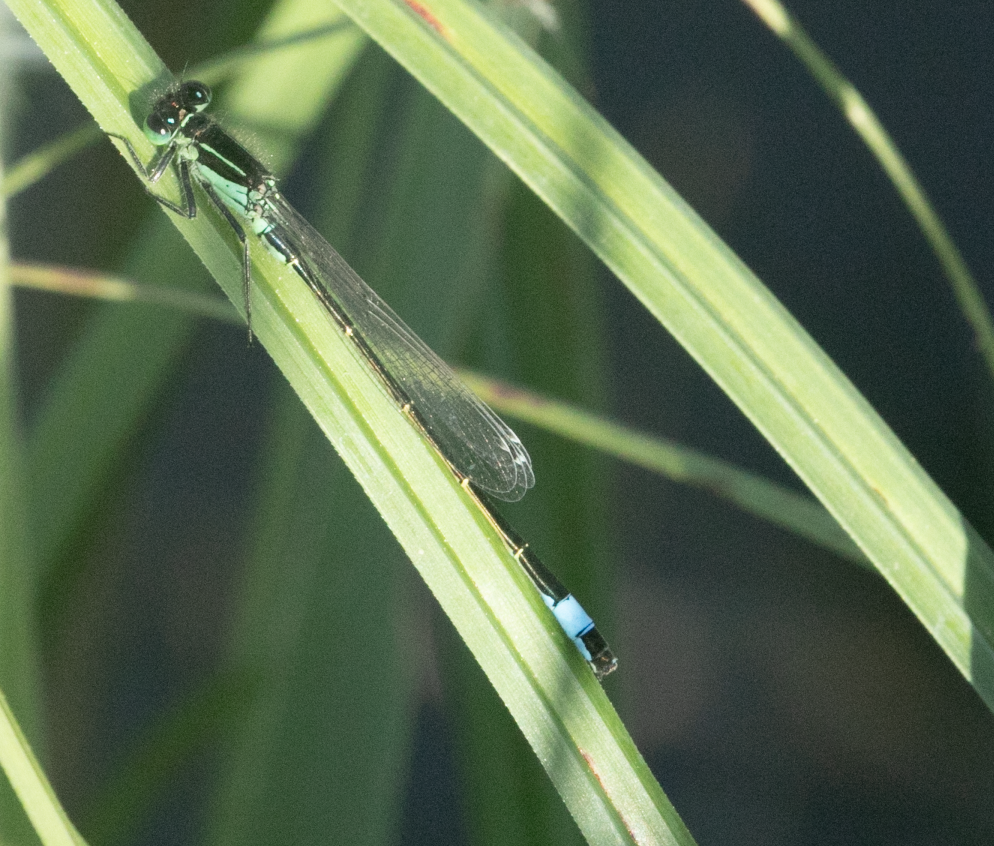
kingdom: Animalia
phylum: Arthropoda
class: Insecta
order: Odonata
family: Coenagrionidae
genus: Ischnura
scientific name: Ischnura elegans
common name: Blue-tailed damselfly
